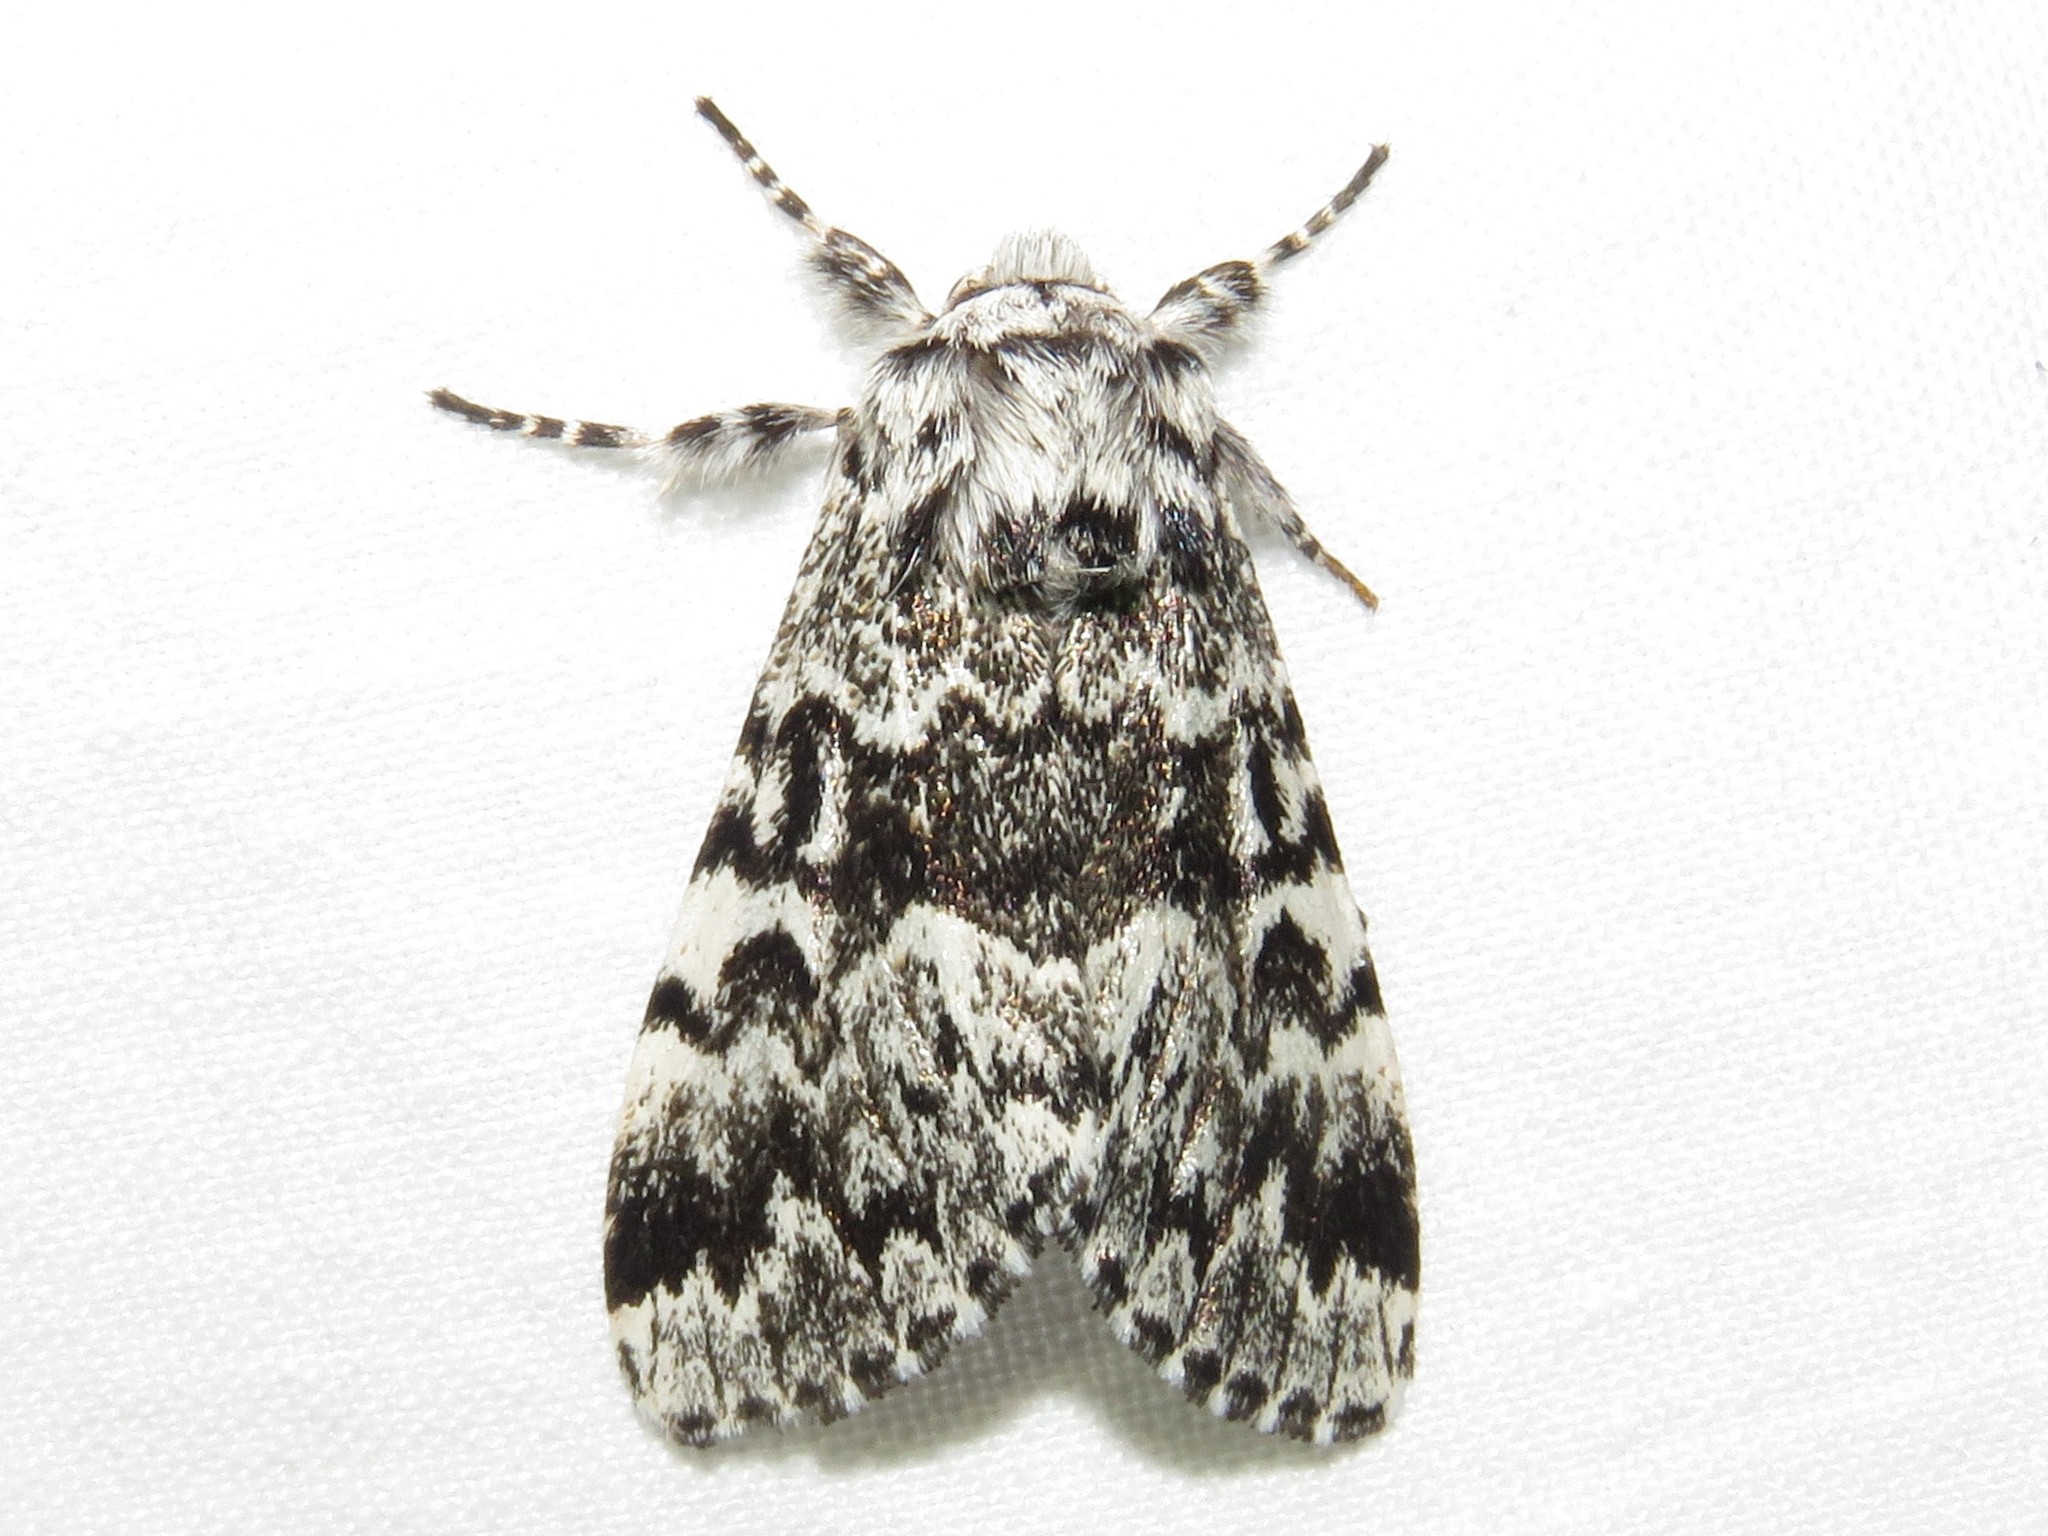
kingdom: Animalia
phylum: Arthropoda
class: Insecta
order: Lepidoptera
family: Noctuidae
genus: Panthea
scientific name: Panthea acronyctoides
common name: Black zigzag moth
